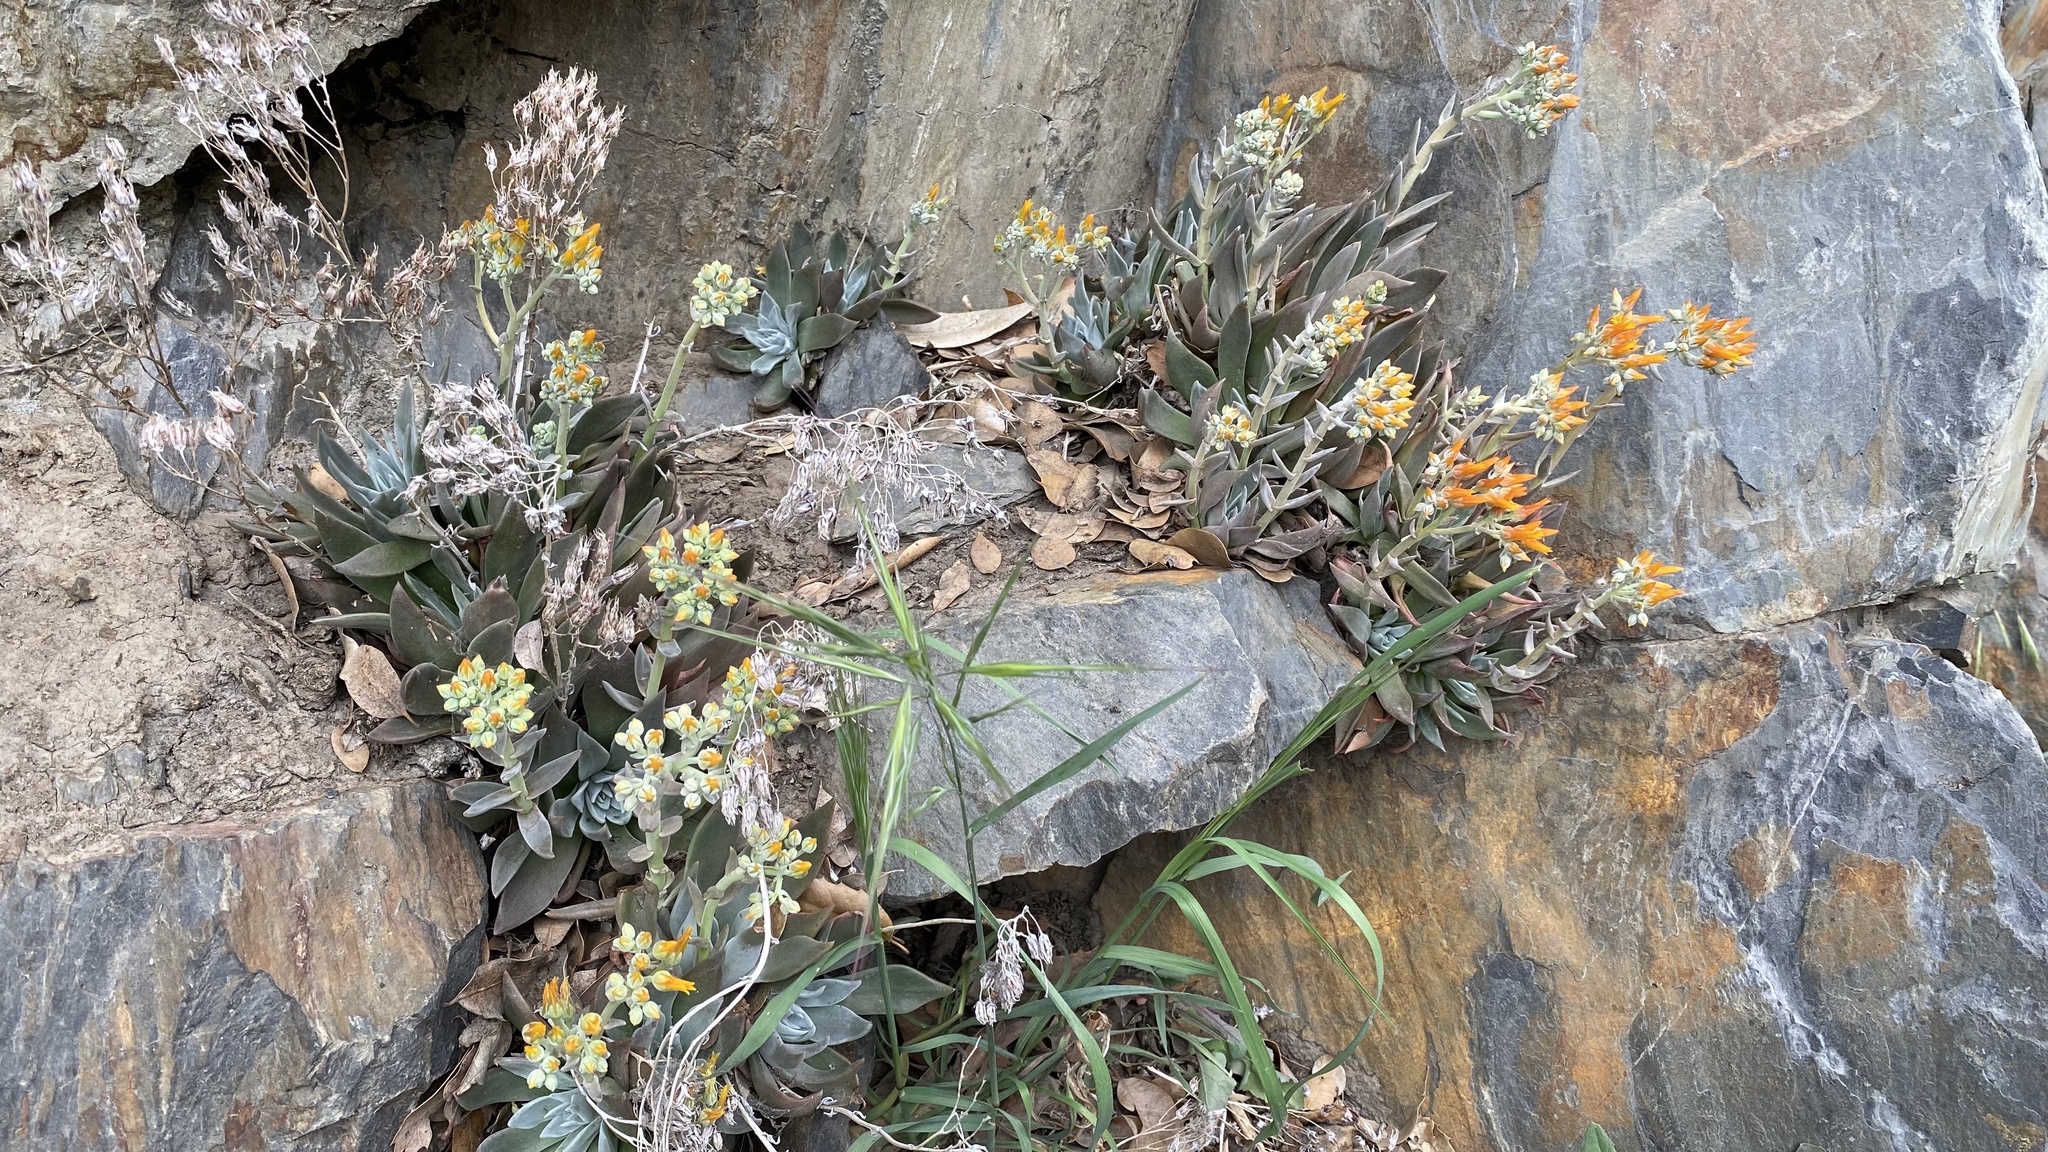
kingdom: Plantae
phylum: Tracheophyta
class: Magnoliopsida
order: Saxifragales
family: Crassulaceae
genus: Dudleya
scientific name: Dudleya cymosa
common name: Canyon dudleya
